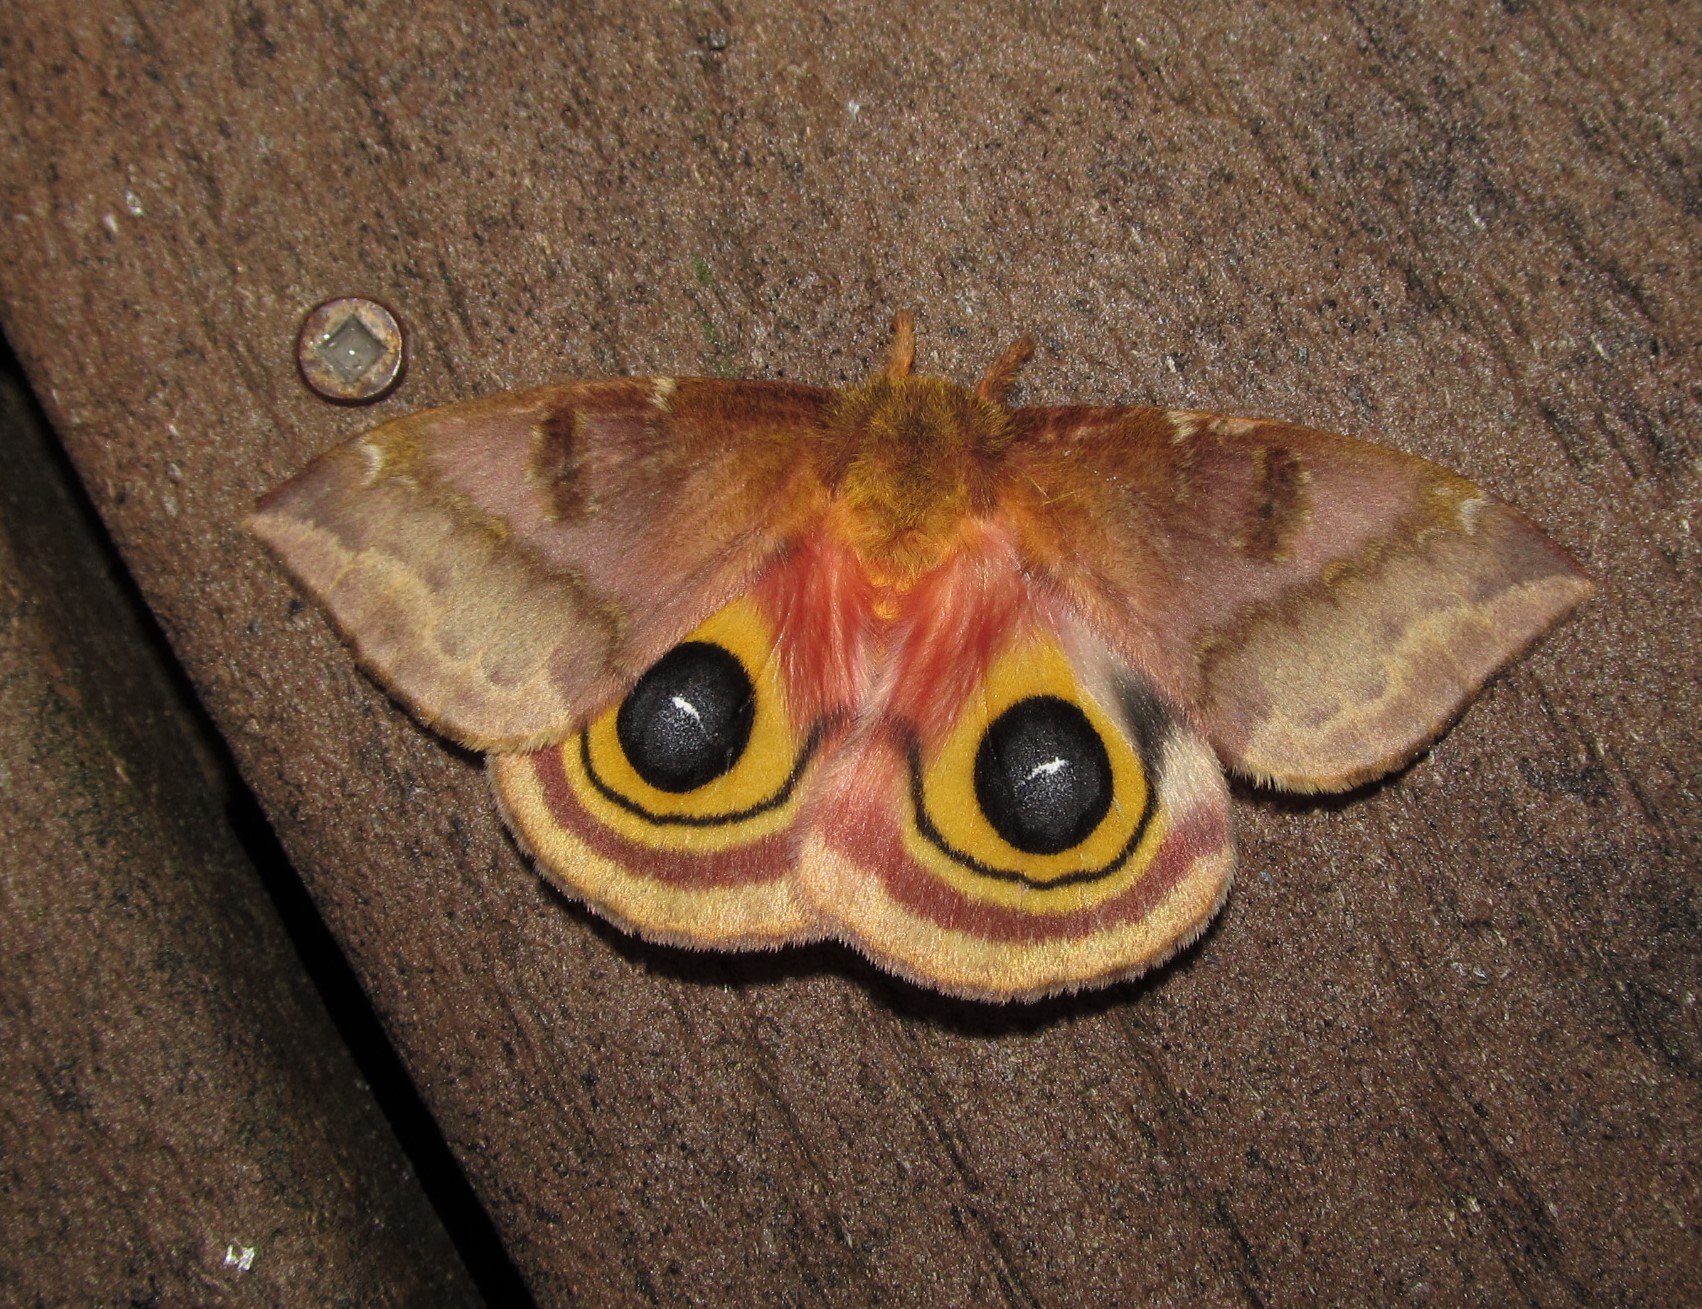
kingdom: Animalia
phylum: Arthropoda
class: Insecta
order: Lepidoptera
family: Saturniidae
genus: Automeris
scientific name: Automeris io
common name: Io moth
